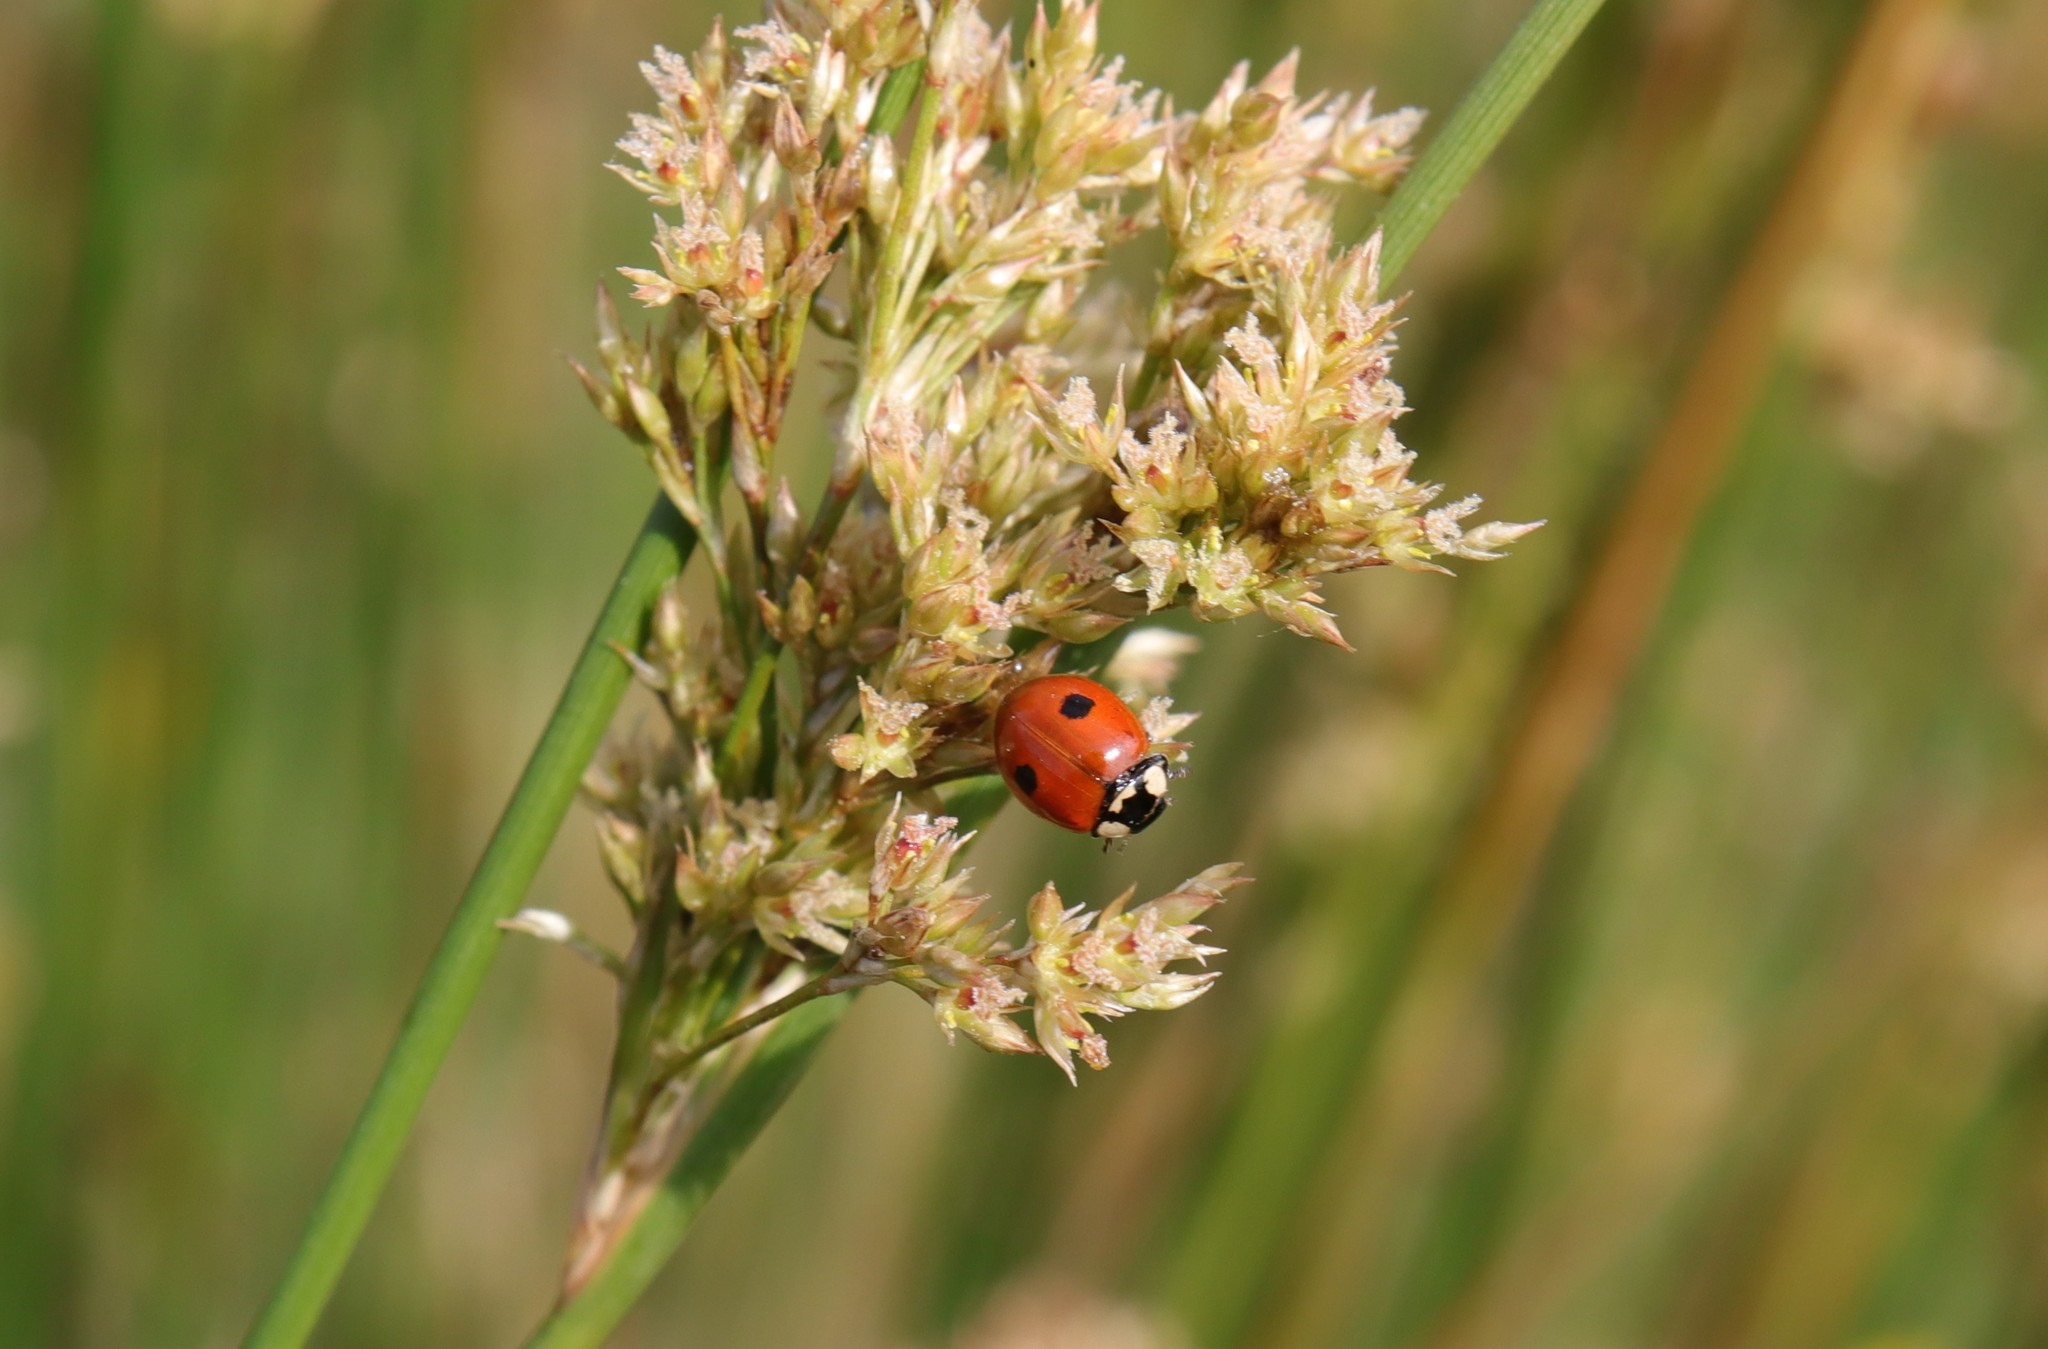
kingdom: Animalia
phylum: Arthropoda
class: Insecta
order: Coleoptera
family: Coccinellidae
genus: Adalia
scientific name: Adalia bipunctata
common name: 2-spot ladybird
